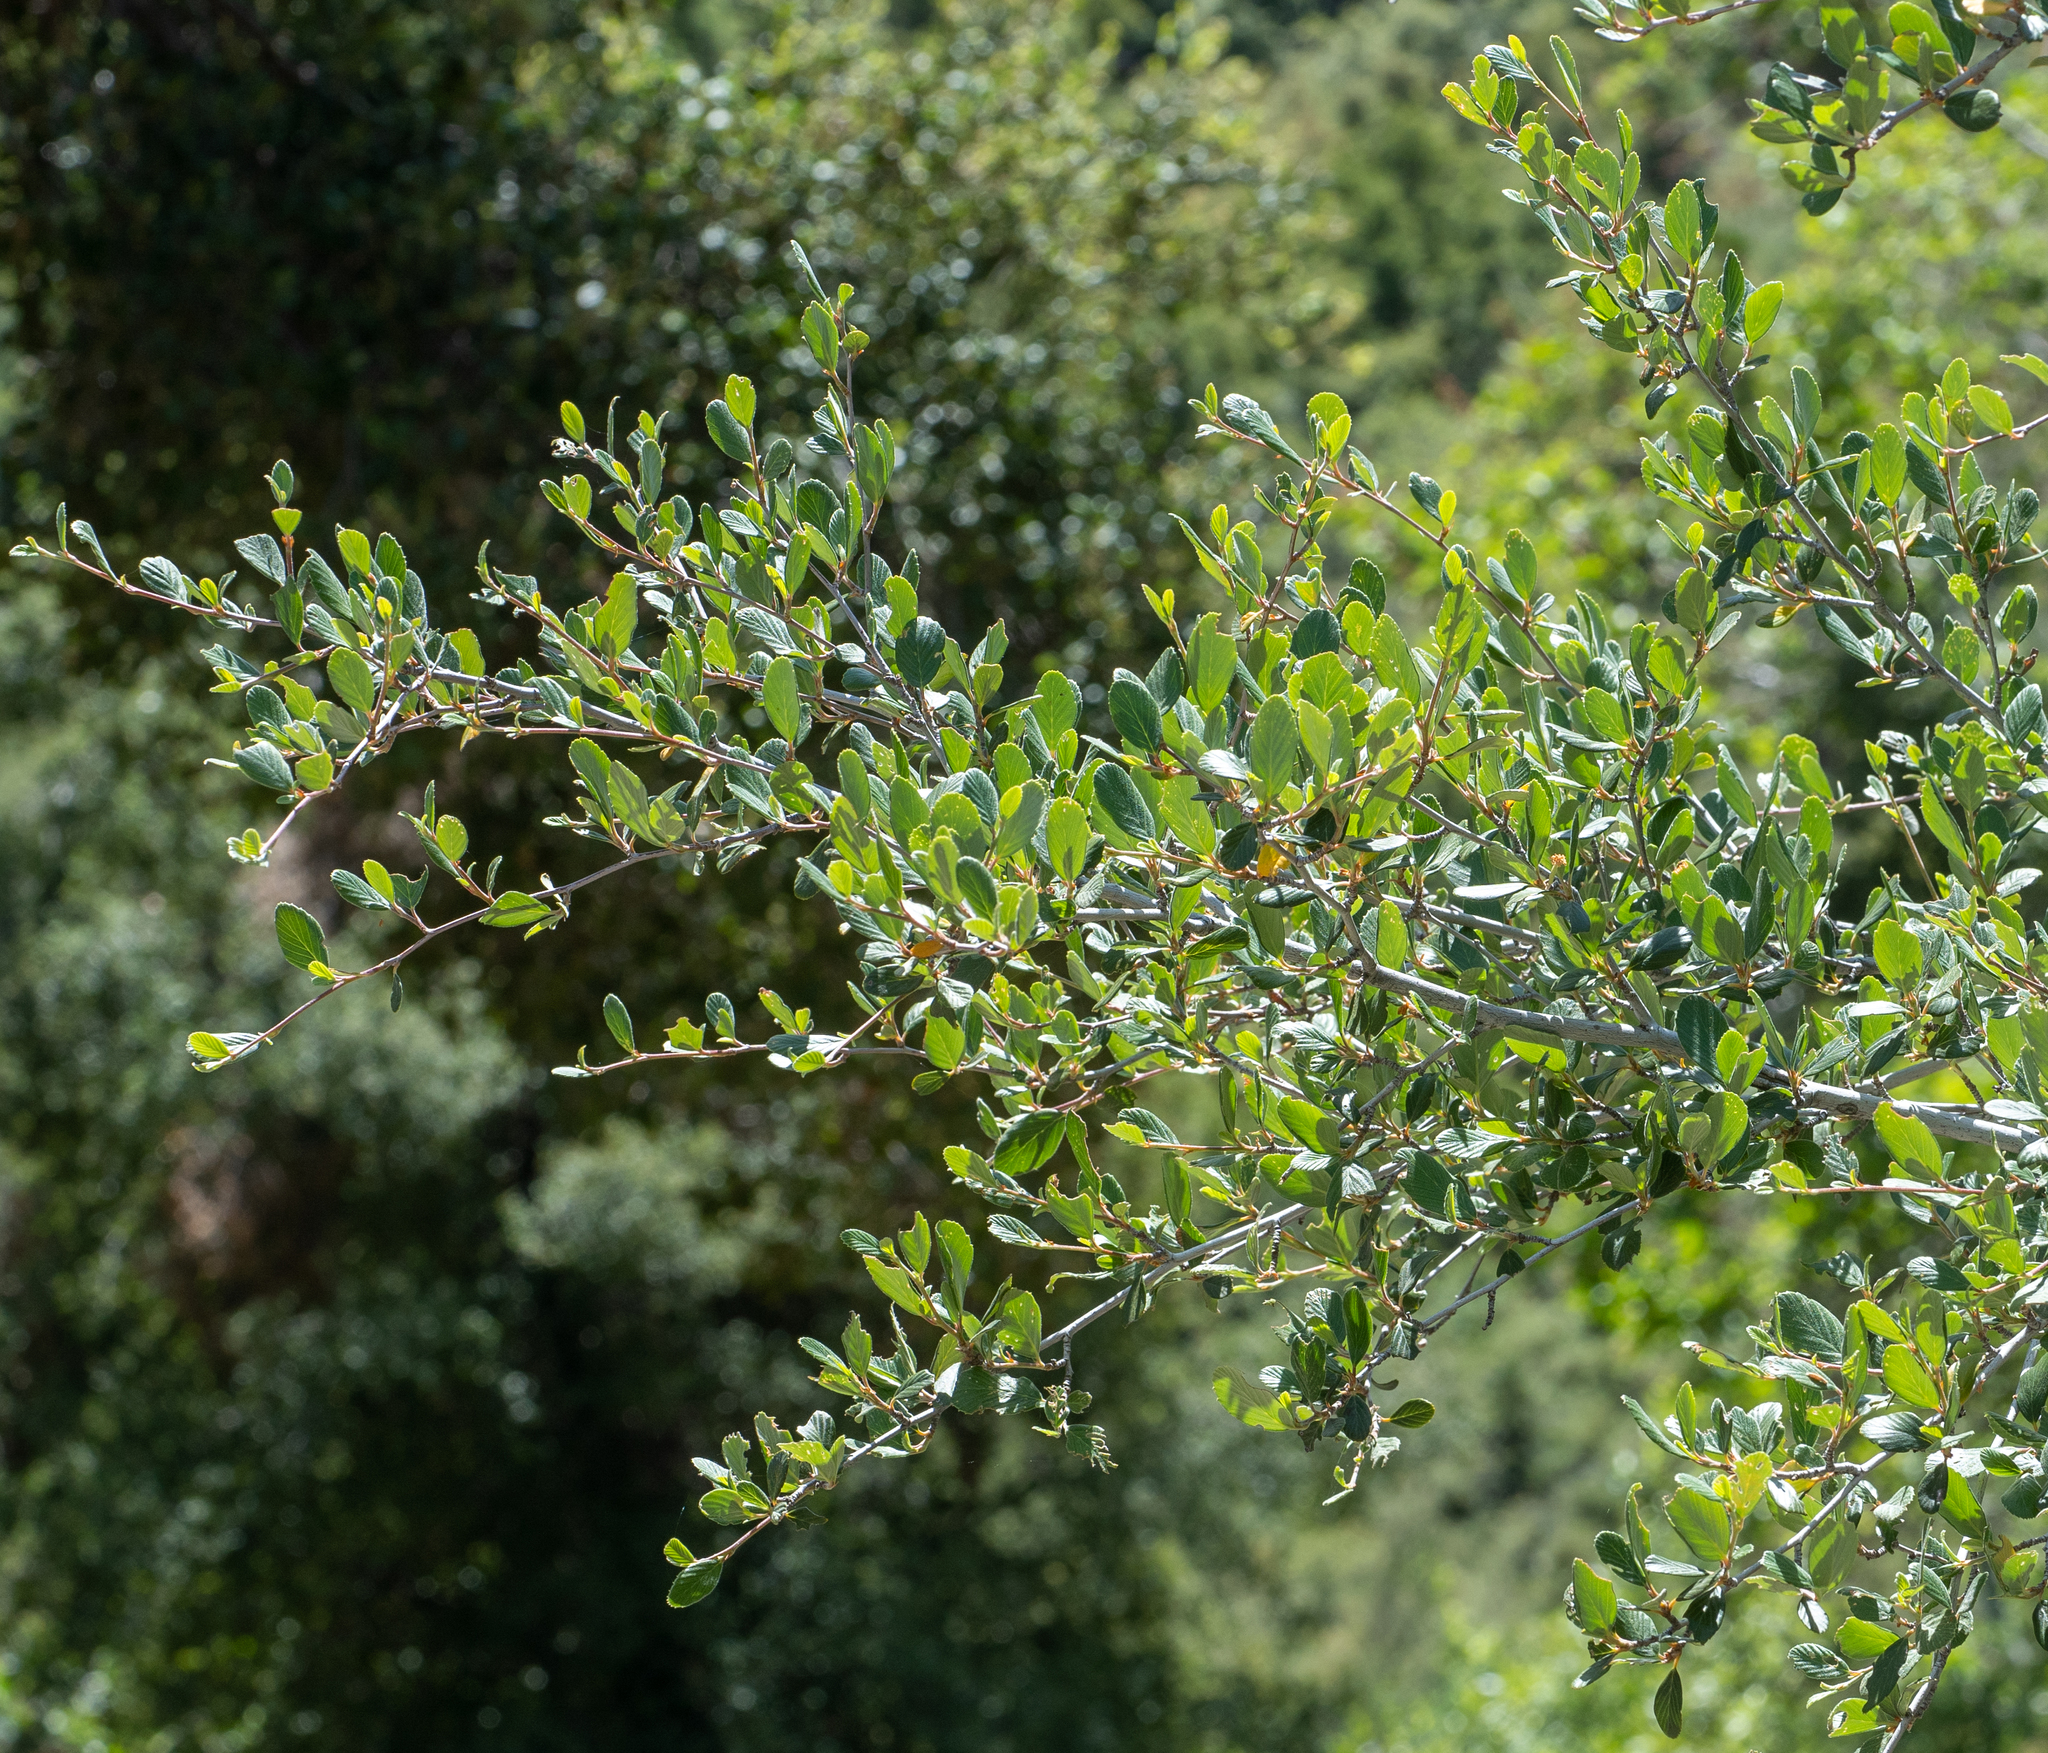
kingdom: Plantae
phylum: Tracheophyta
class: Magnoliopsida
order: Rosales
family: Rosaceae
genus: Cercocarpus
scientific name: Cercocarpus betuloides
